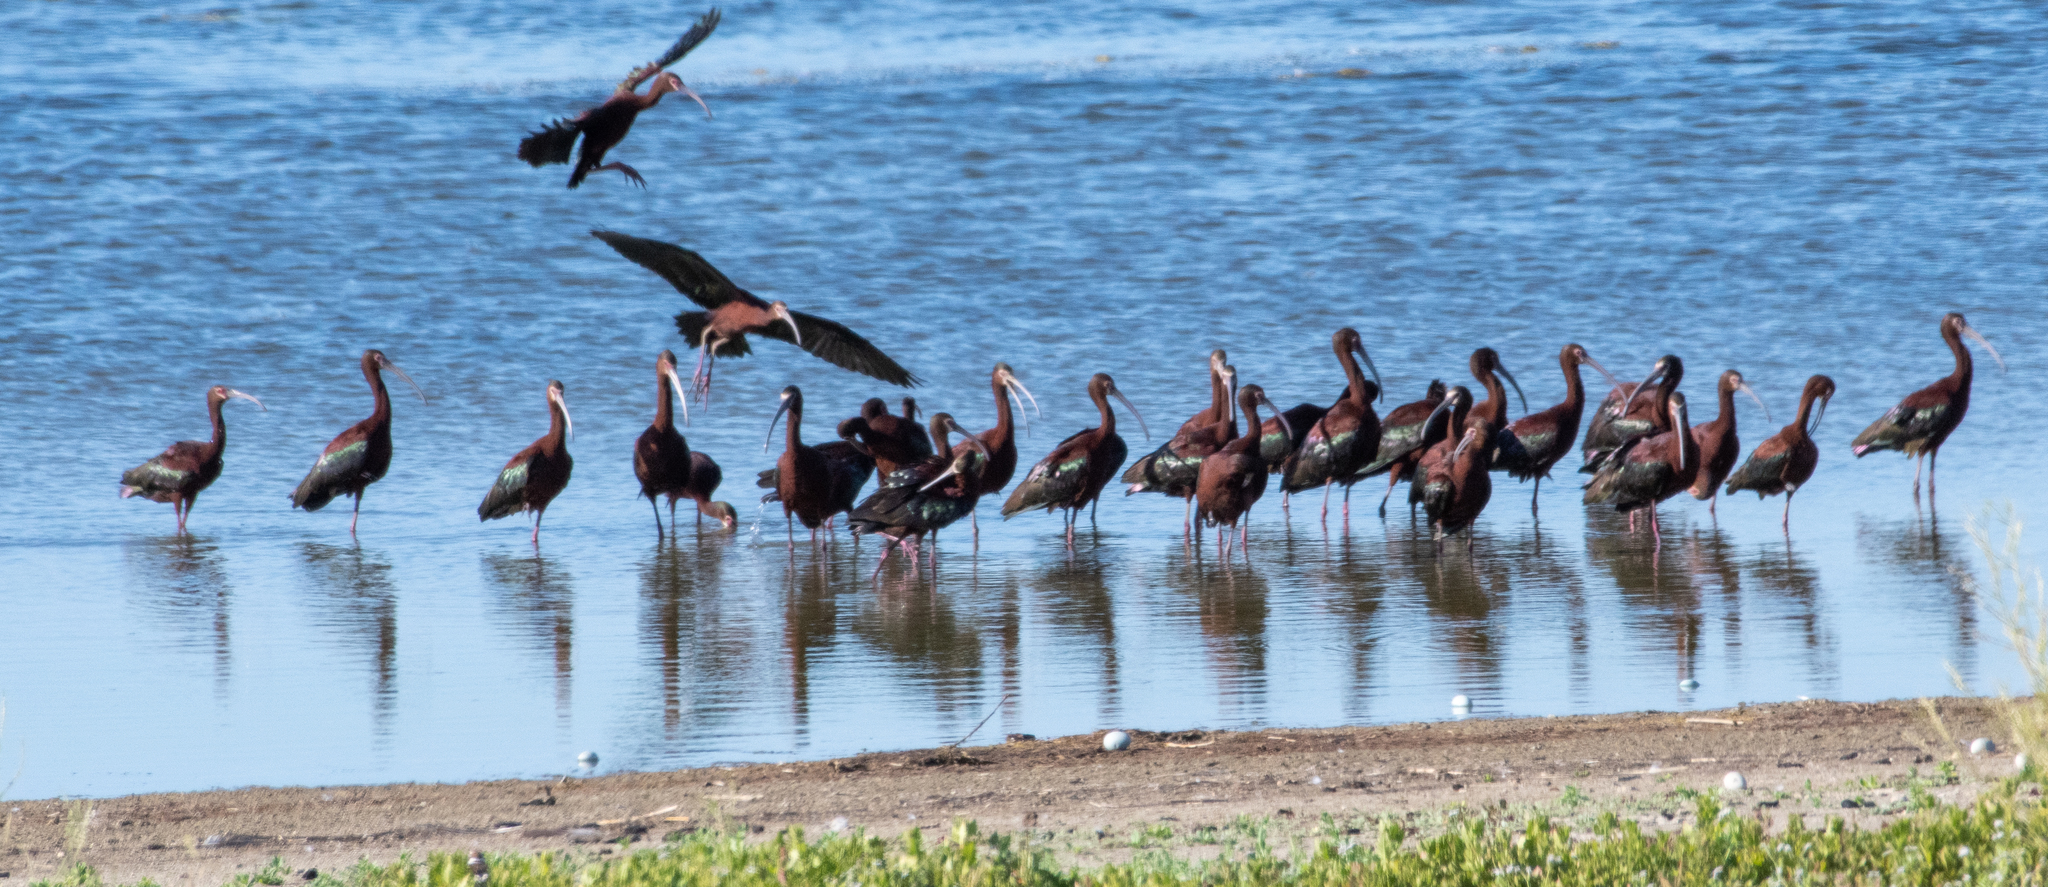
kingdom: Animalia
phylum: Chordata
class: Aves
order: Pelecaniformes
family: Threskiornithidae
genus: Plegadis
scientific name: Plegadis chihi
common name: White-faced ibis
